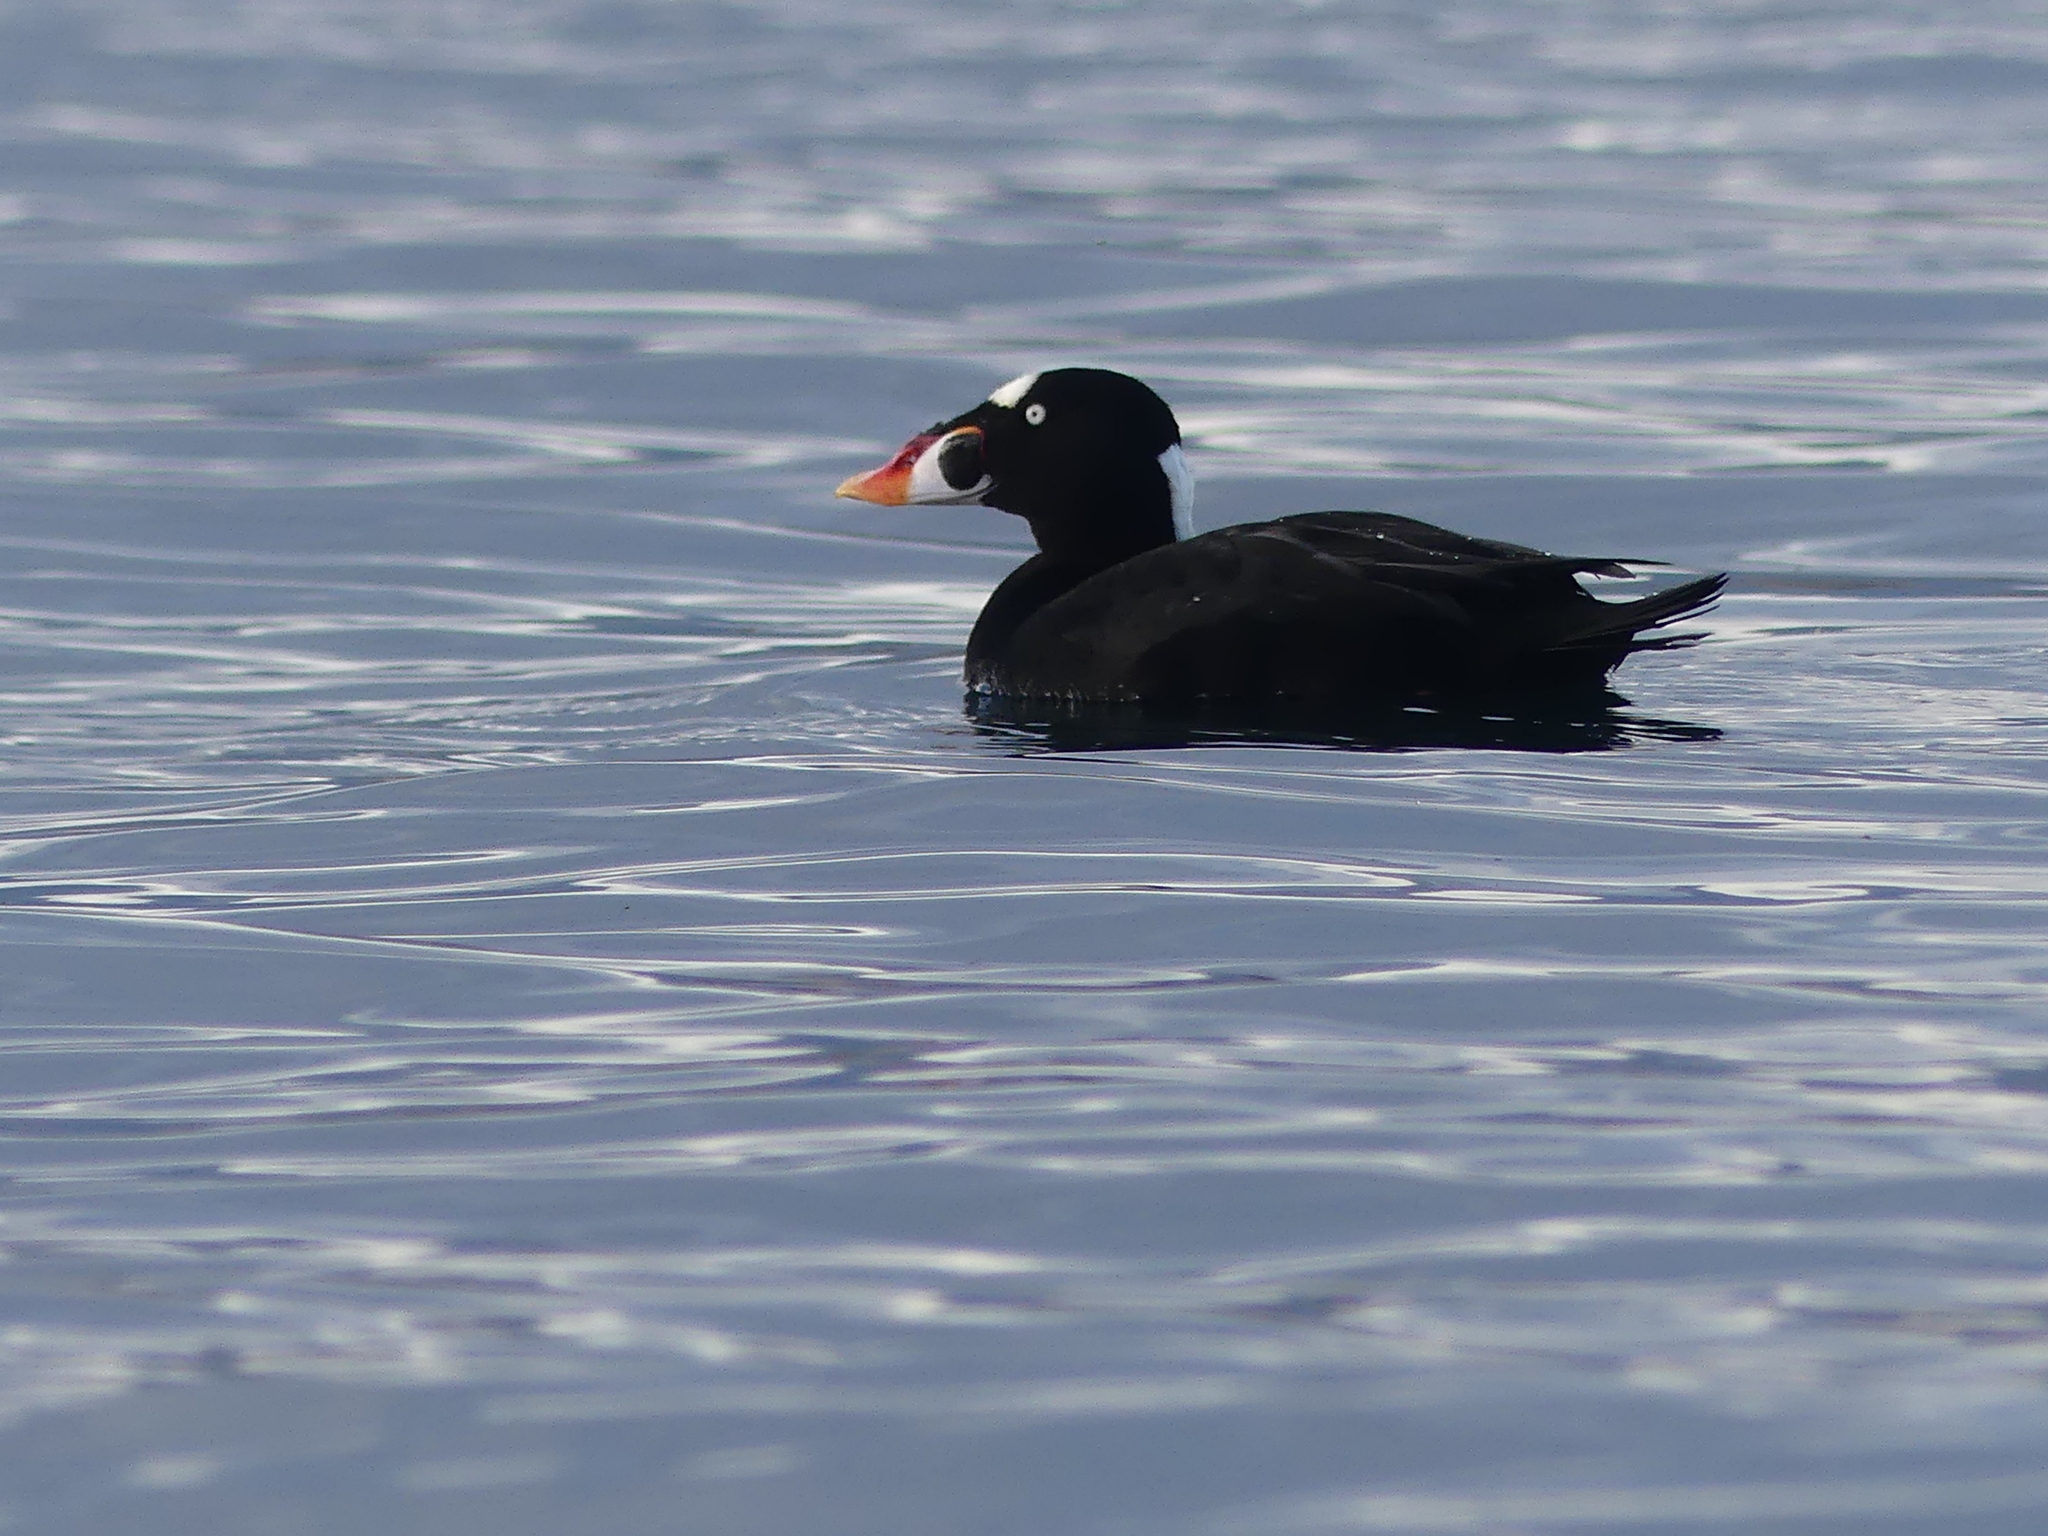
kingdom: Animalia
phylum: Chordata
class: Aves
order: Anseriformes
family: Anatidae
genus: Melanitta
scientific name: Melanitta perspicillata
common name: Surf scoter
